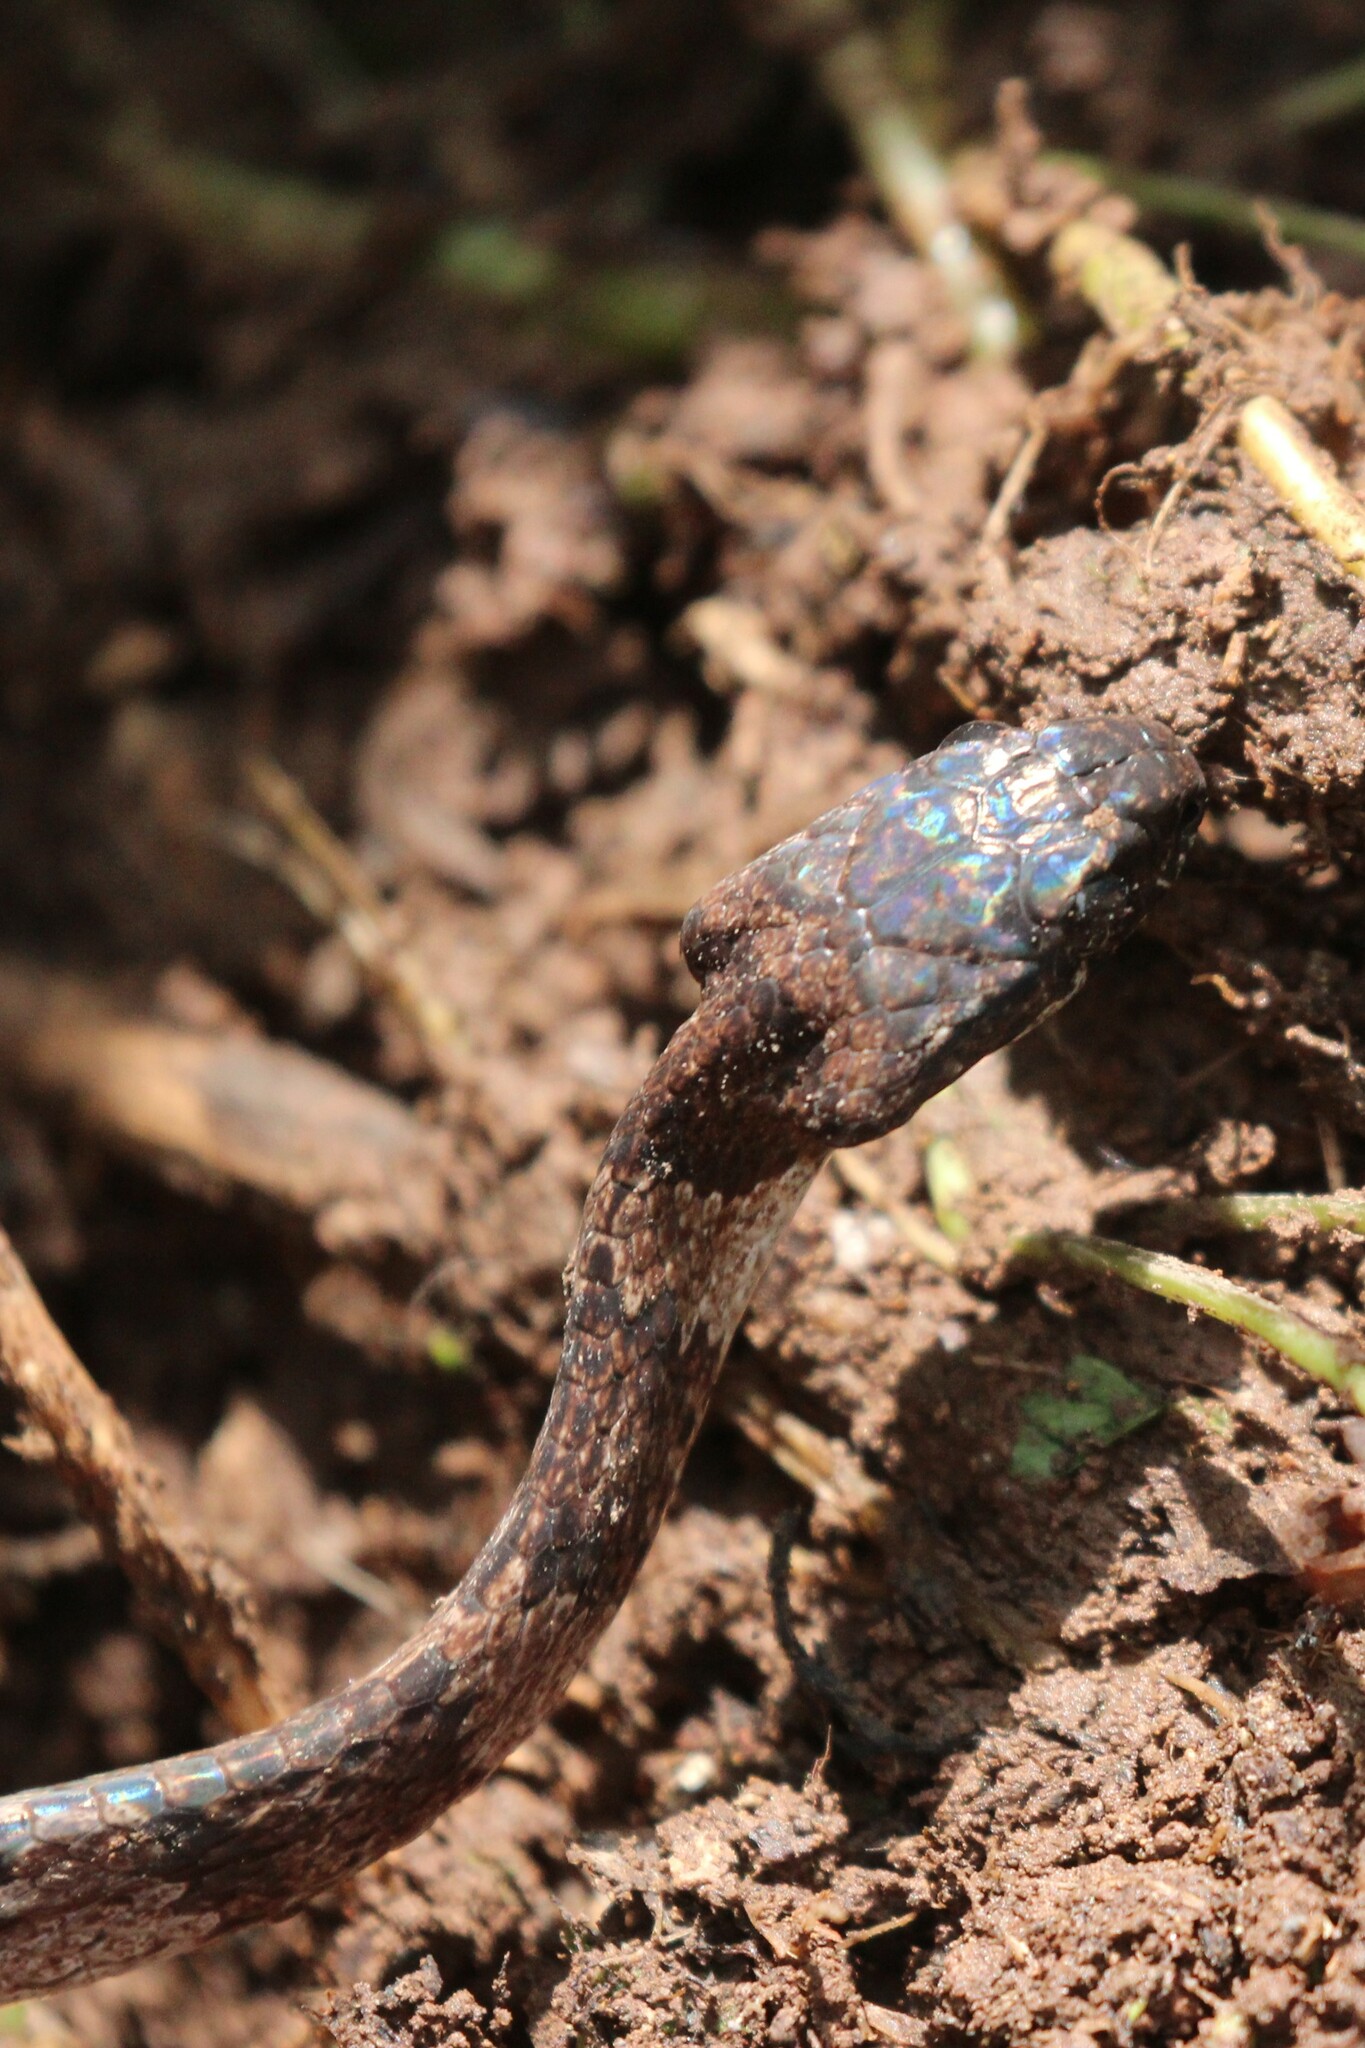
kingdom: Animalia
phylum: Chordata
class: Squamata
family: Colubridae
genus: Dipsas
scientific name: Dipsas elegans
